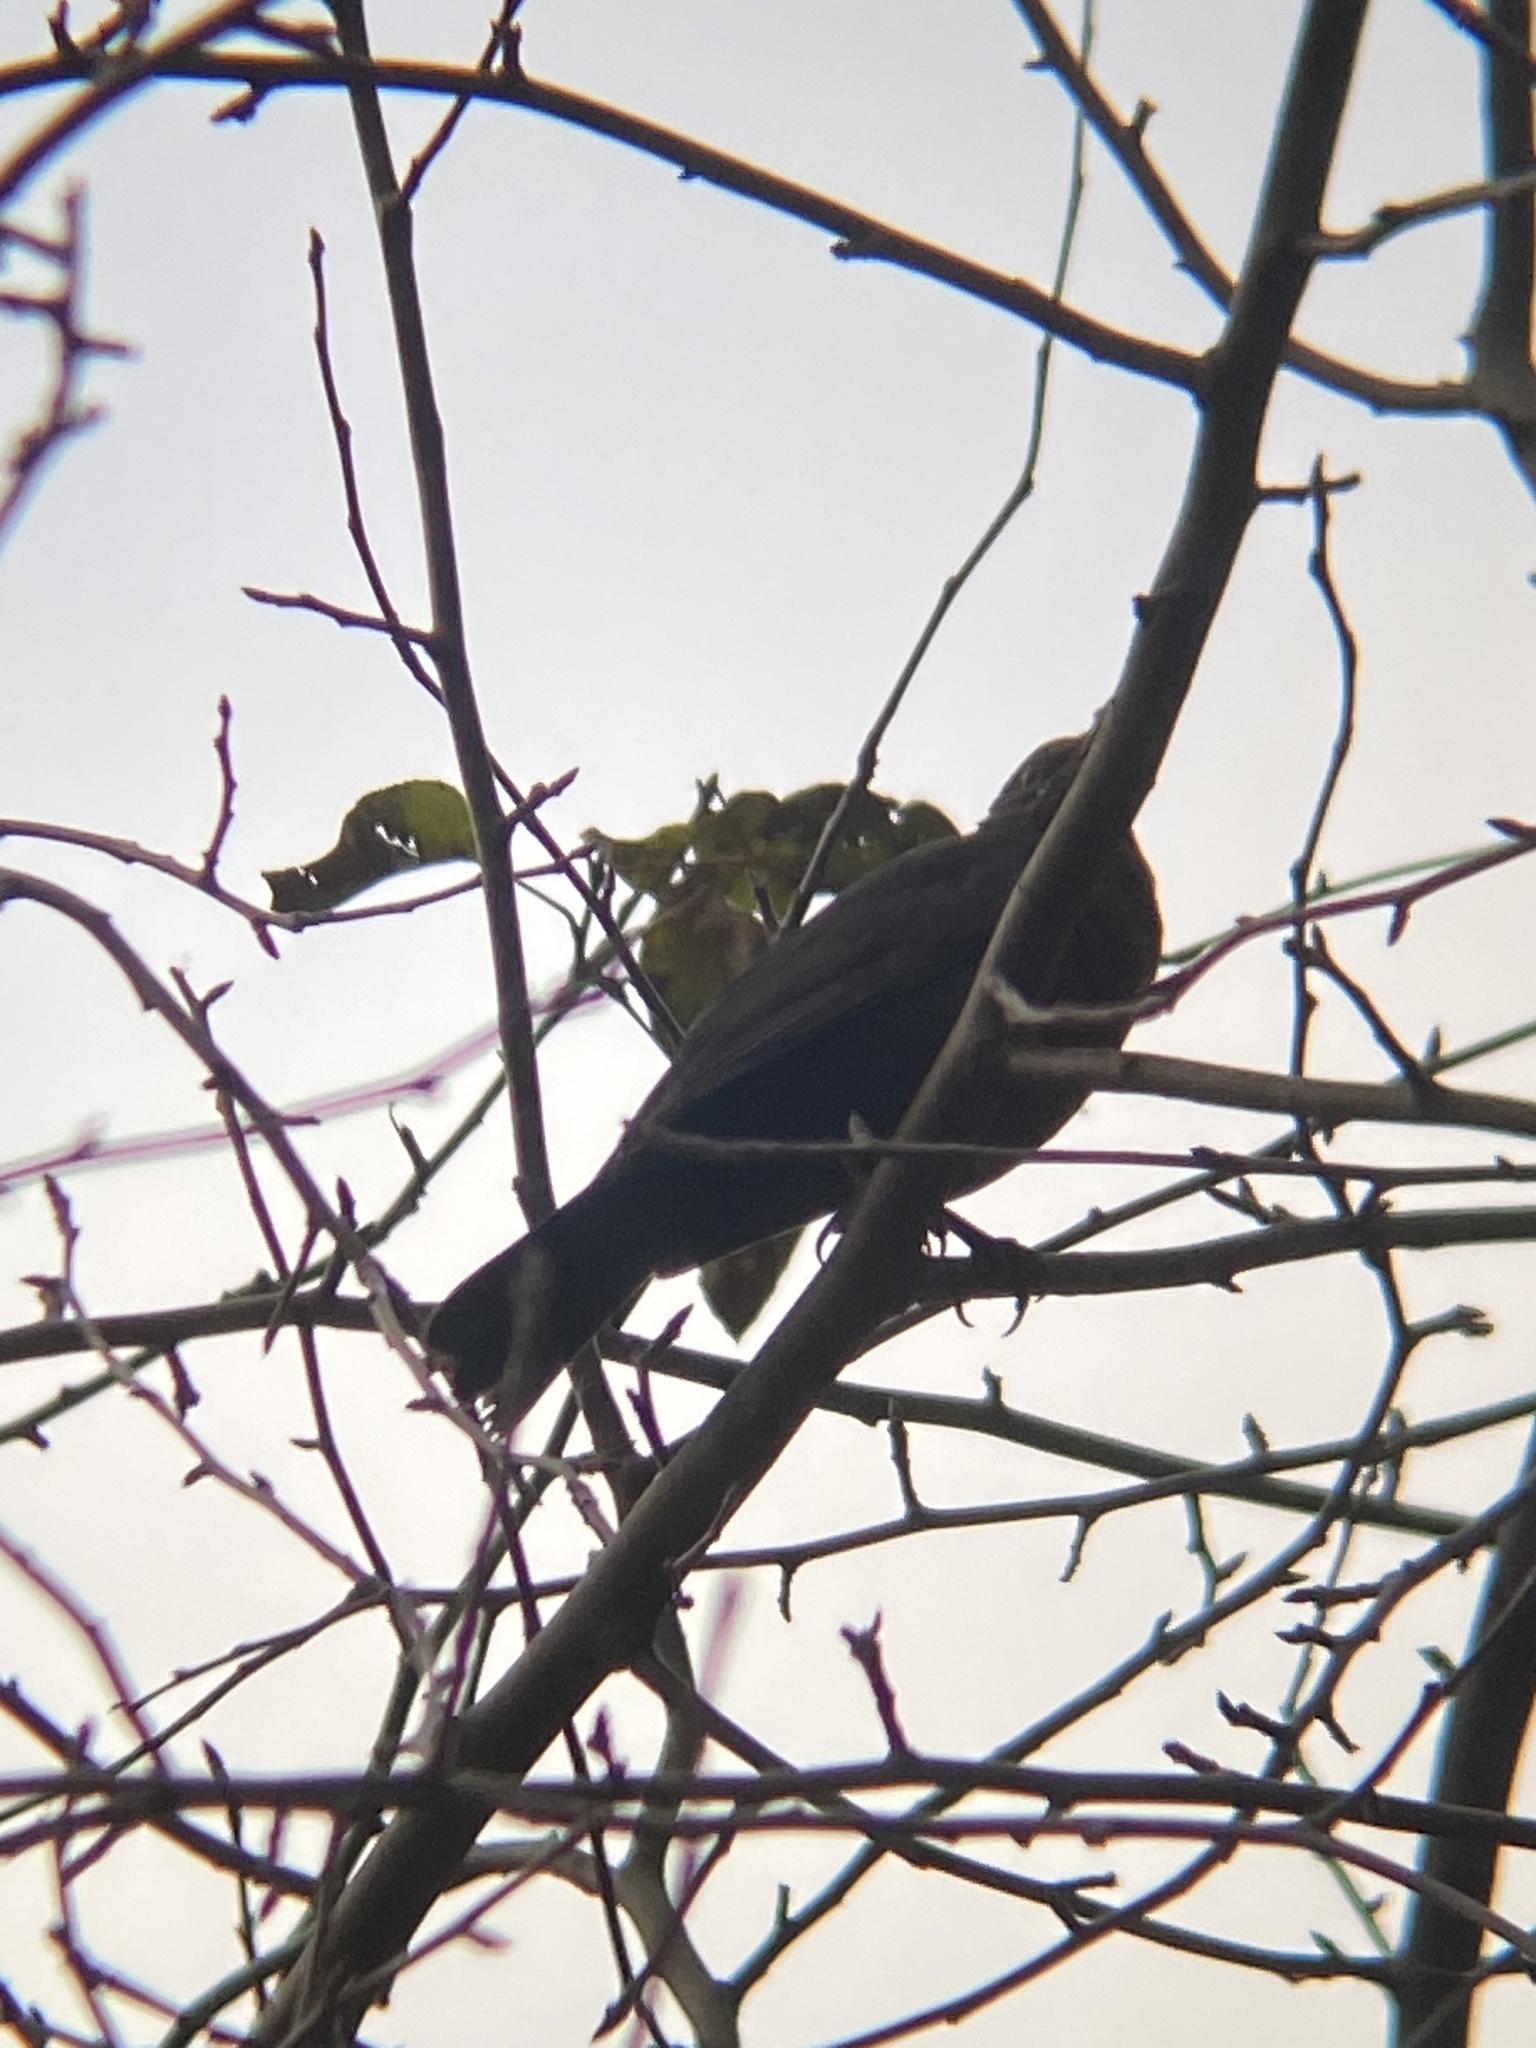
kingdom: Animalia
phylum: Chordata
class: Aves
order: Passeriformes
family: Turdidae
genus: Turdus
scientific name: Turdus merula
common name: Common blackbird
